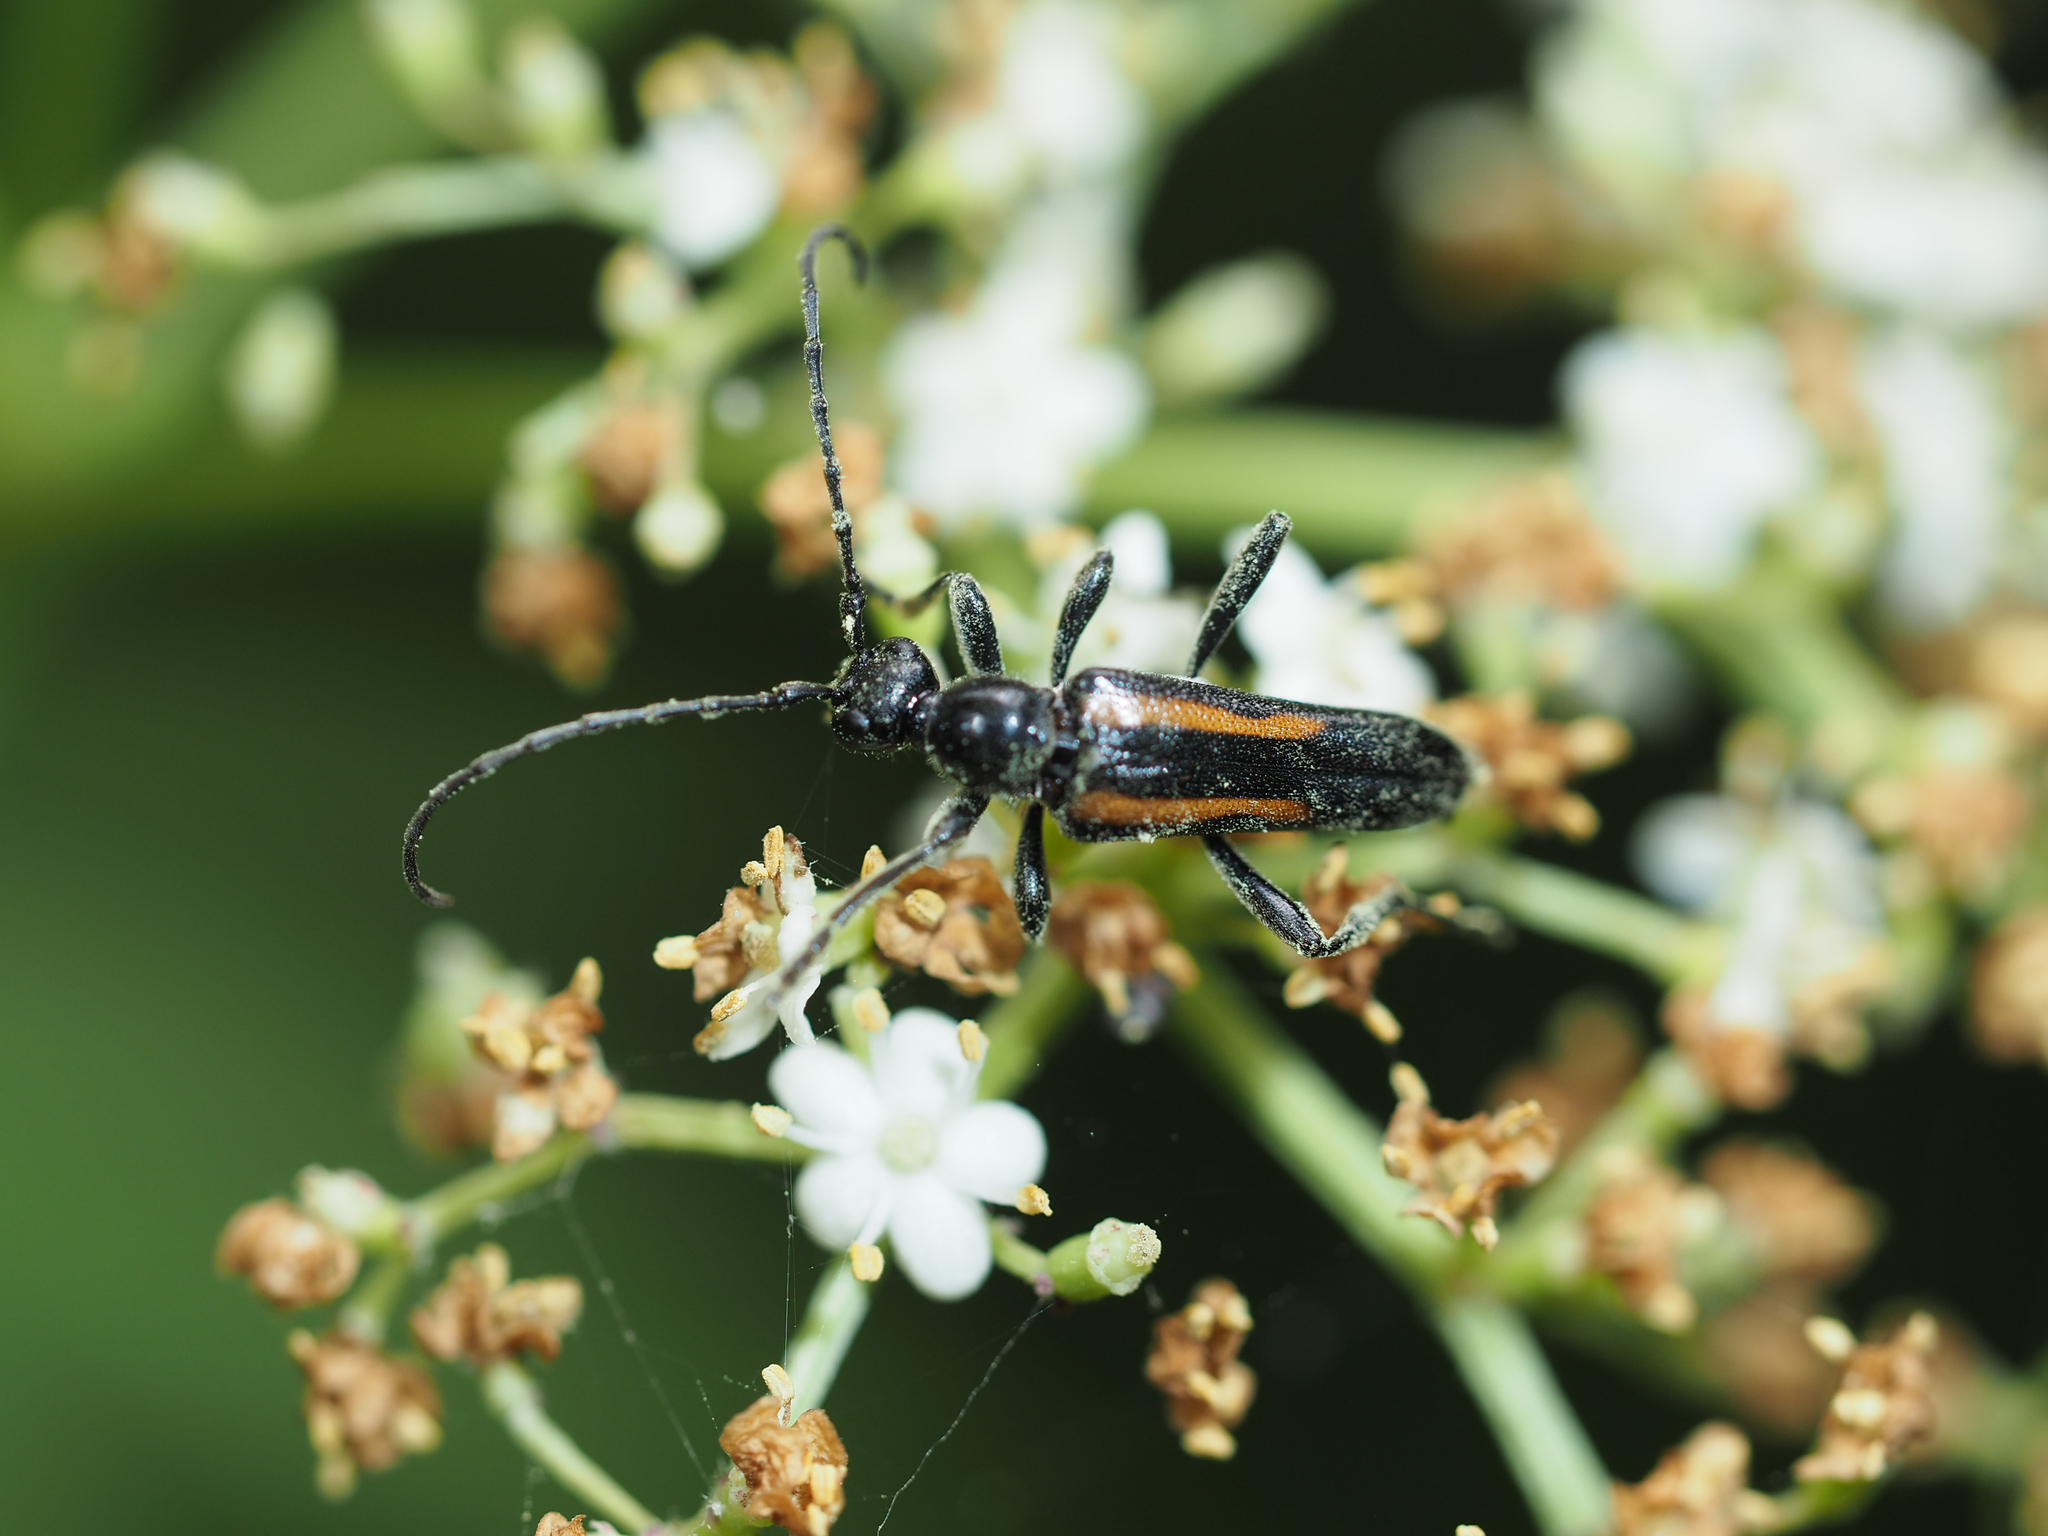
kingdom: Animalia
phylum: Arthropoda
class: Insecta
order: Coleoptera
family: Cerambycidae
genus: Strangalepta
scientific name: Strangalepta abbreviata
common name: Strangalepta flower longhorn beetle
